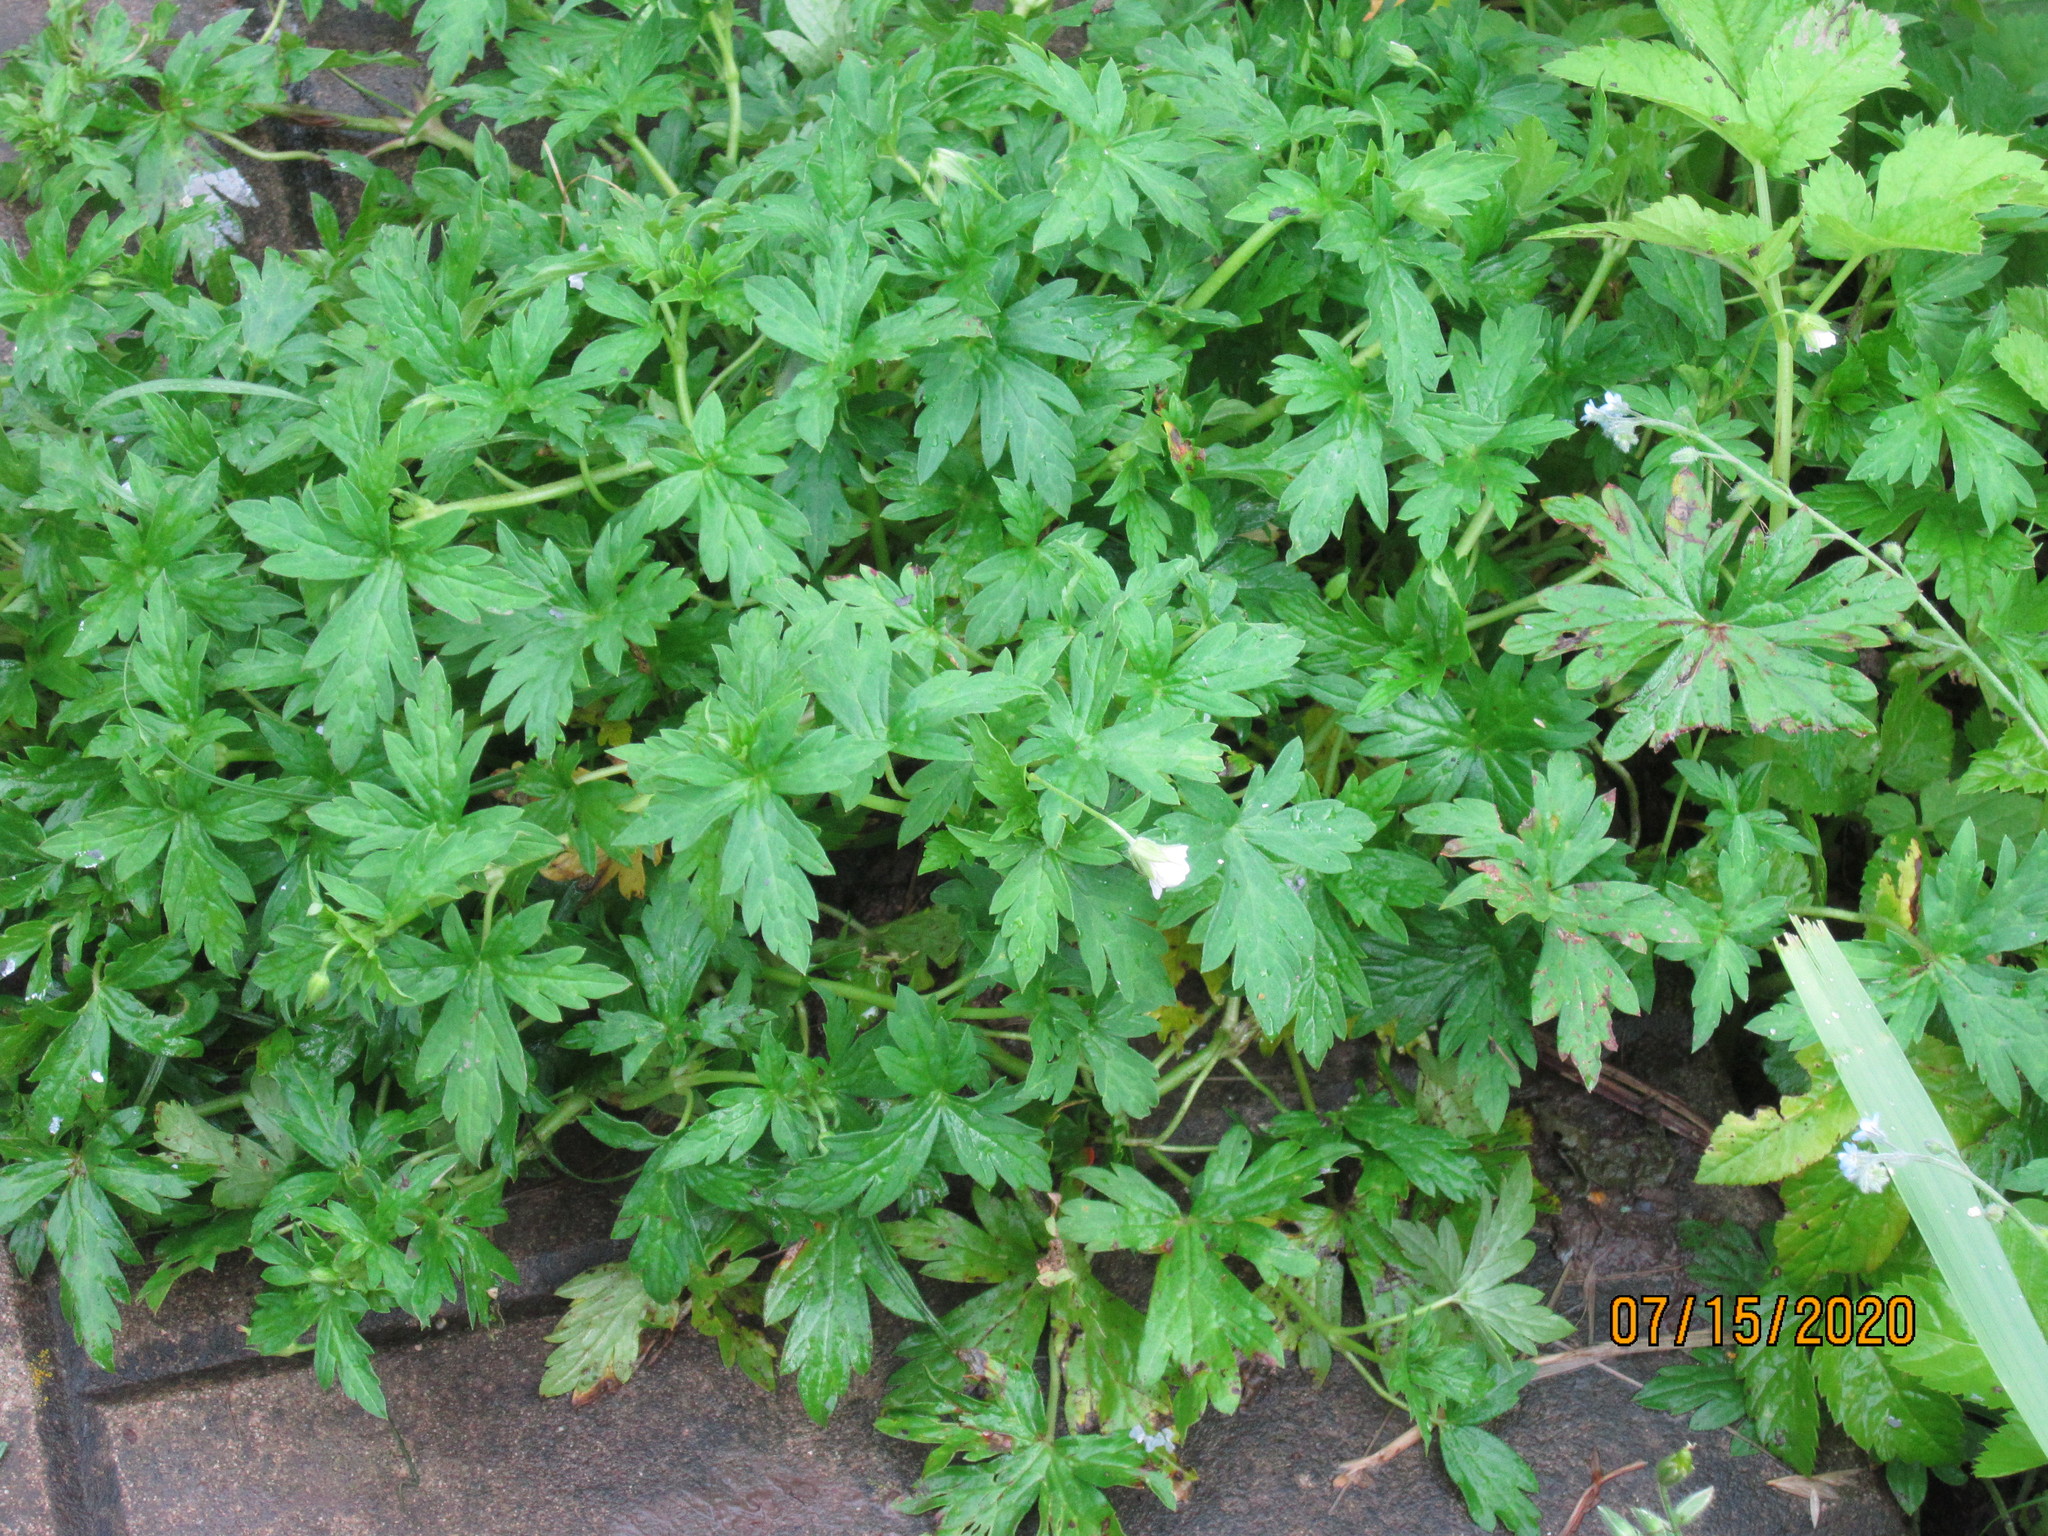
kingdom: Plantae
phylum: Tracheophyta
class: Magnoliopsida
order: Geraniales
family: Geraniaceae
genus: Geranium
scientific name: Geranium sibiricum
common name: Siberian crane's-bill
